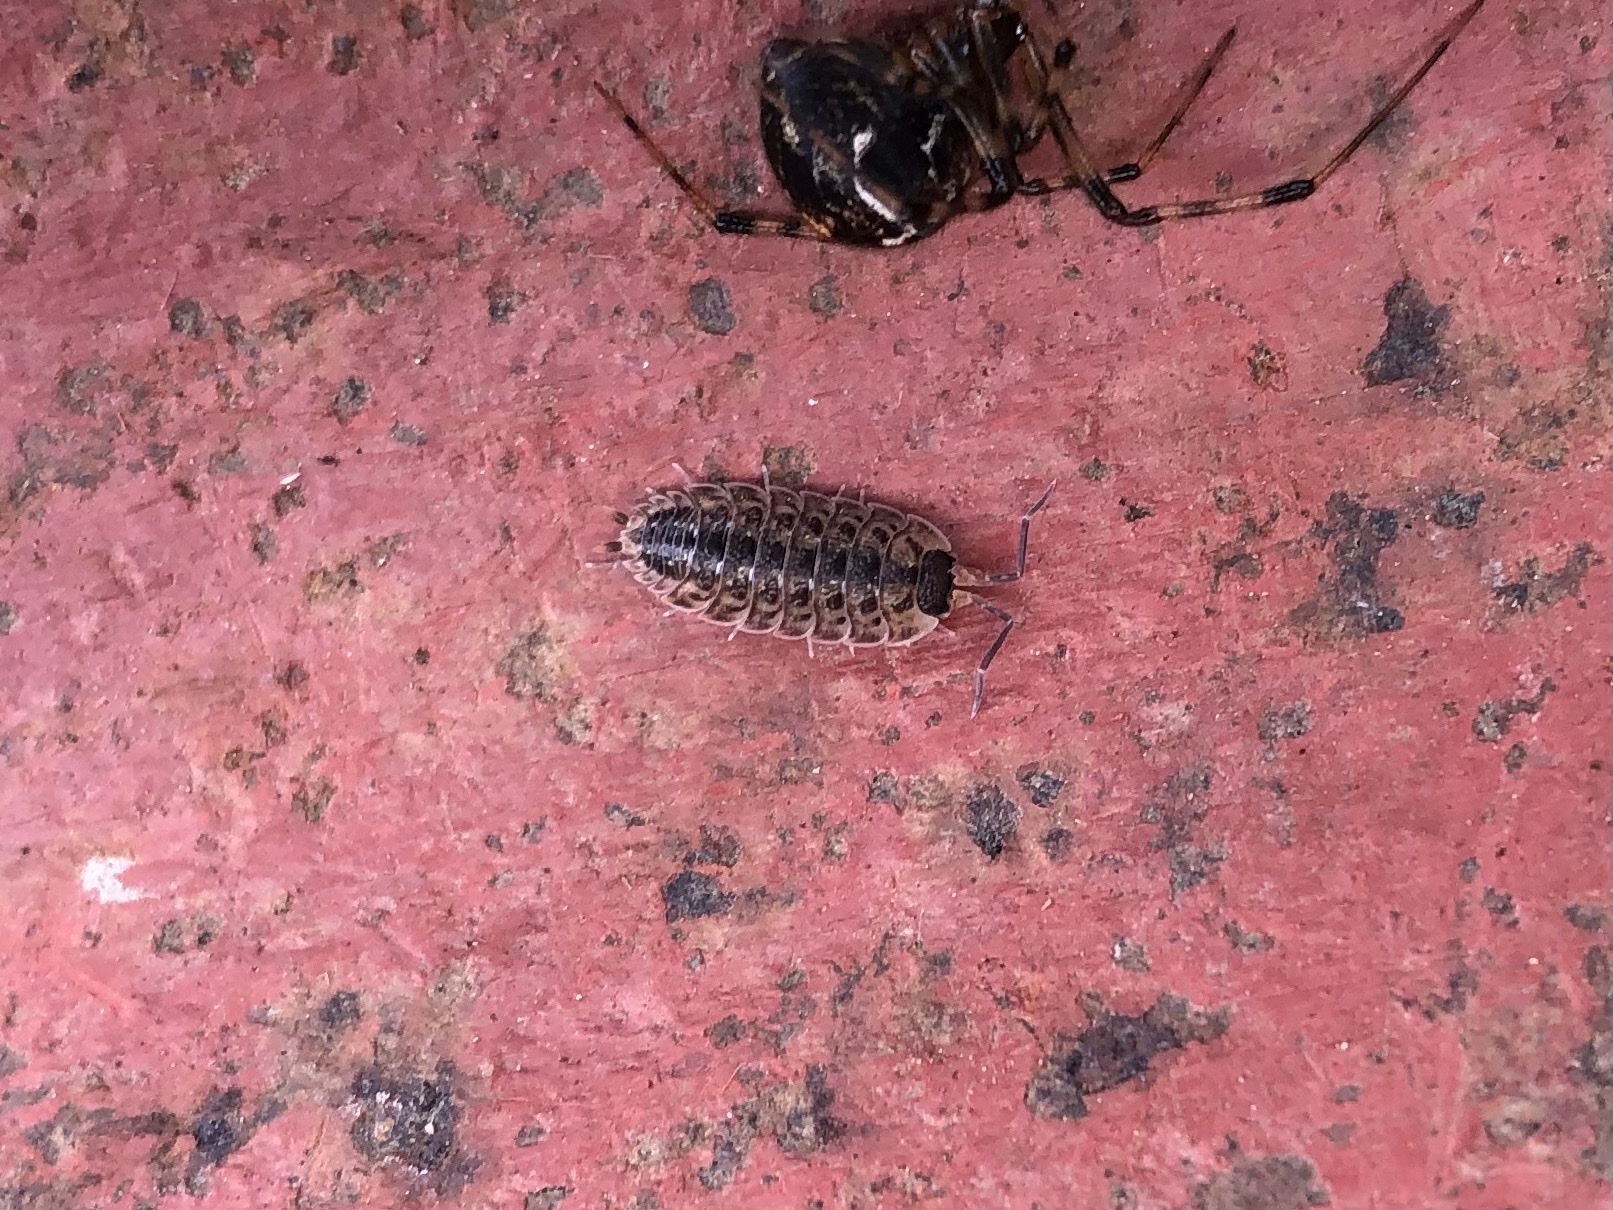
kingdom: Animalia
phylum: Arthropoda
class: Malacostraca
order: Isopoda
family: Porcellionidae
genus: Porcellio
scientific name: Porcellio spinicornis
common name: Painted woodlouse
